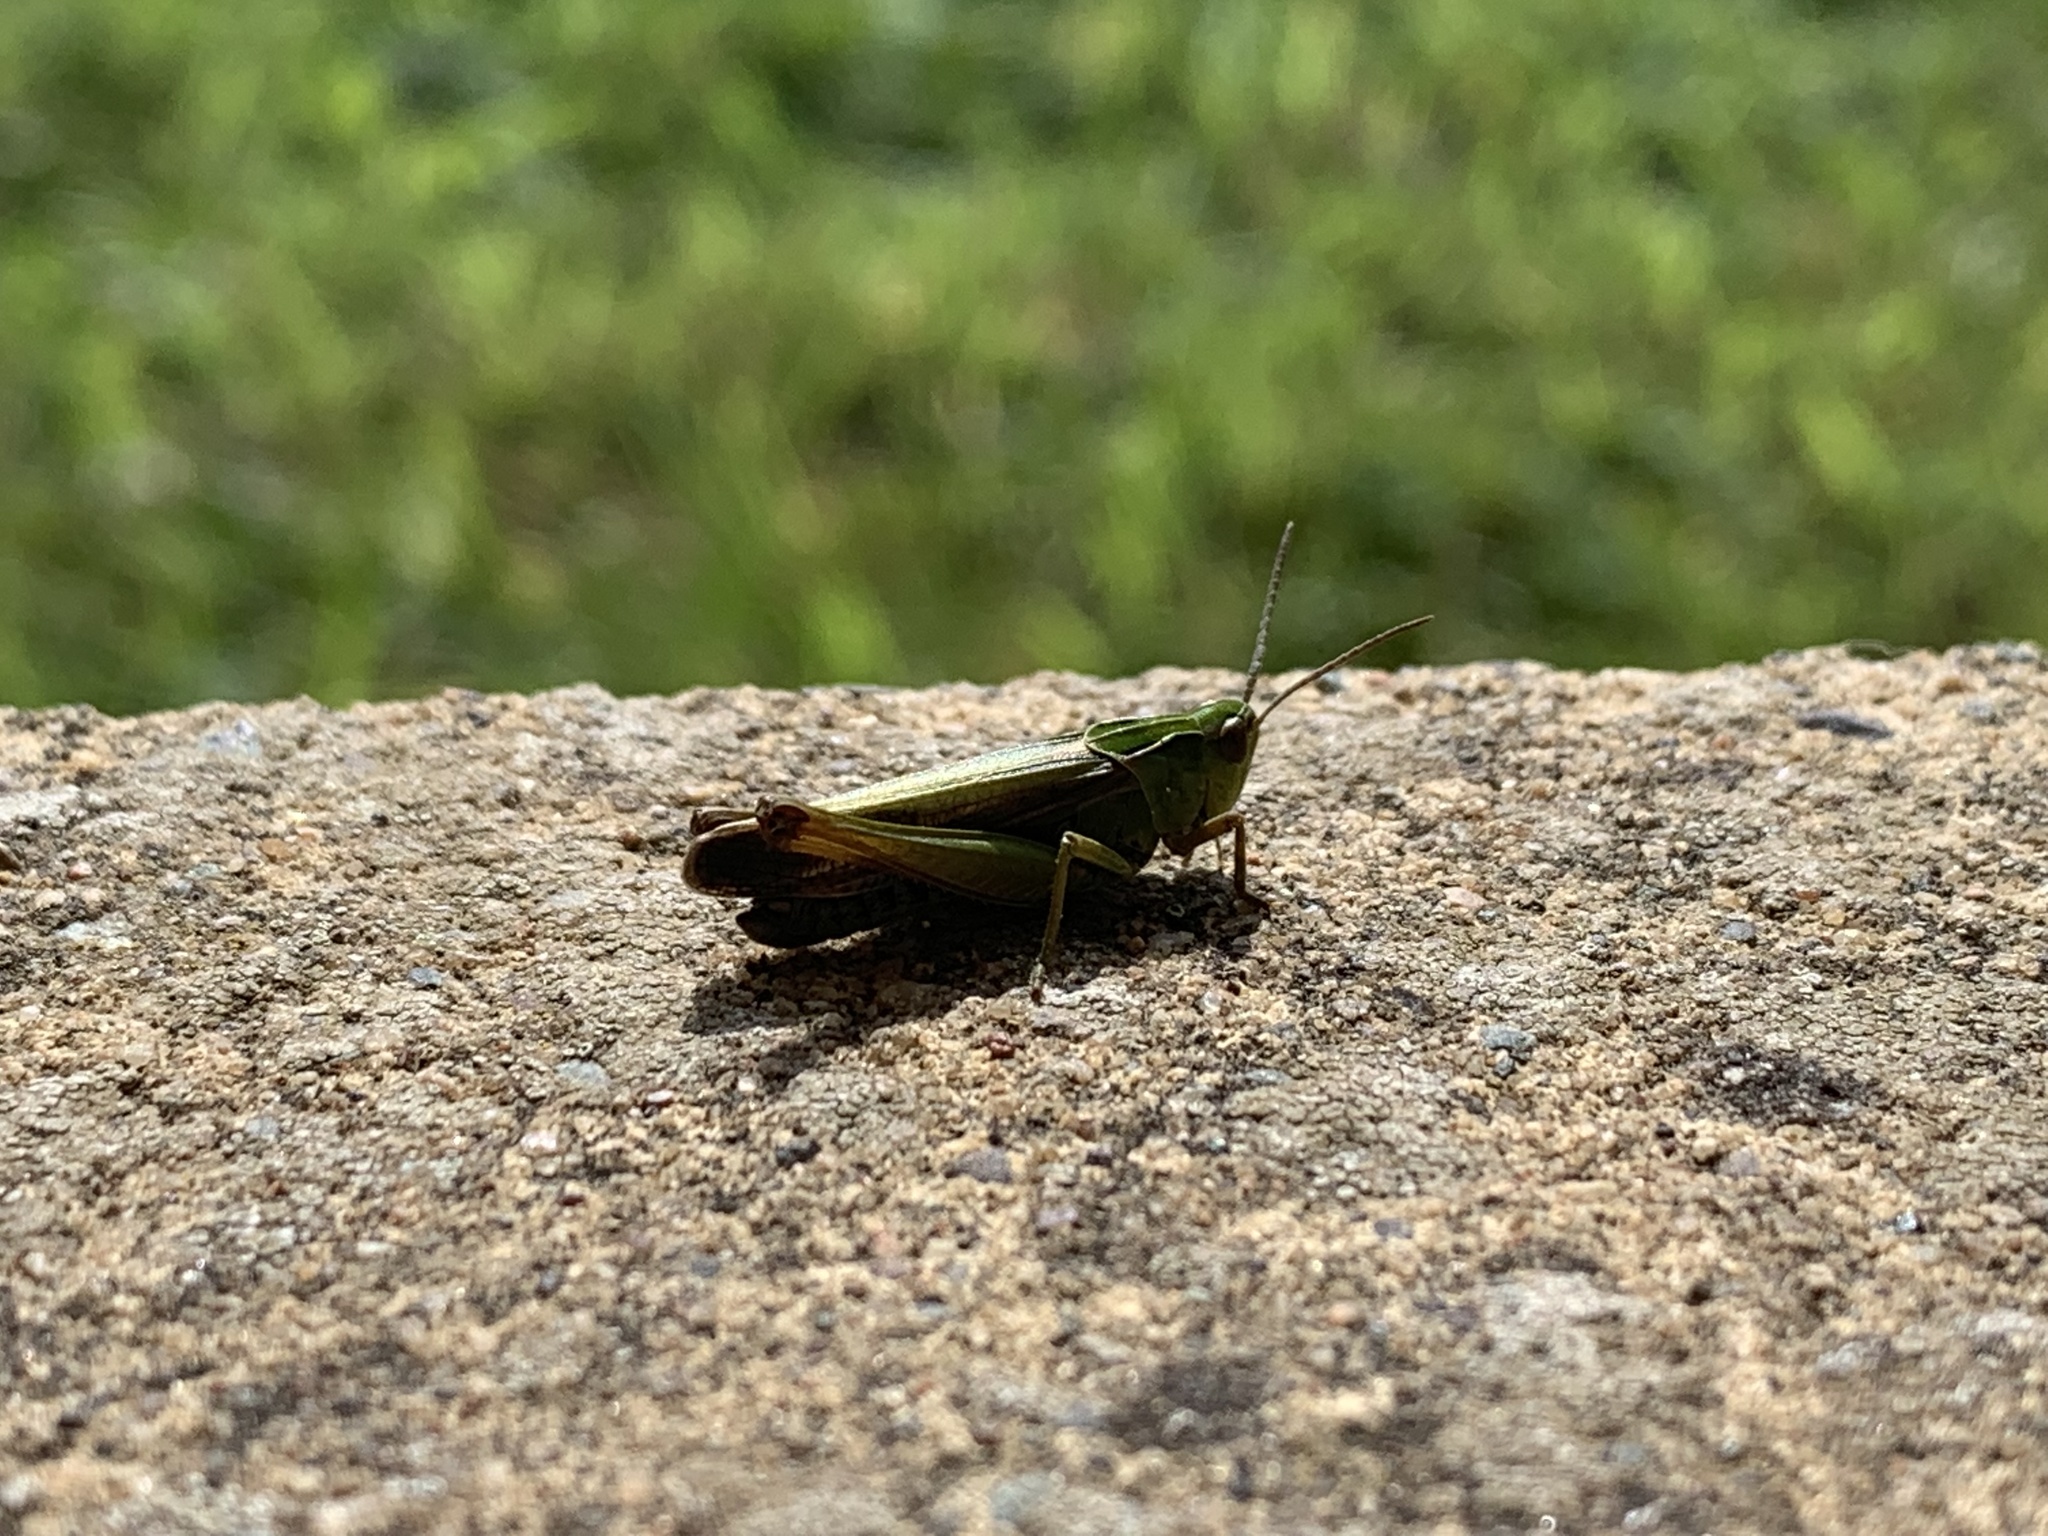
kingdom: Animalia
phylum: Arthropoda
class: Insecta
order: Orthoptera
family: Acrididae
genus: Omocestus
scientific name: Omocestus viridulus
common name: Common green grasshopper
